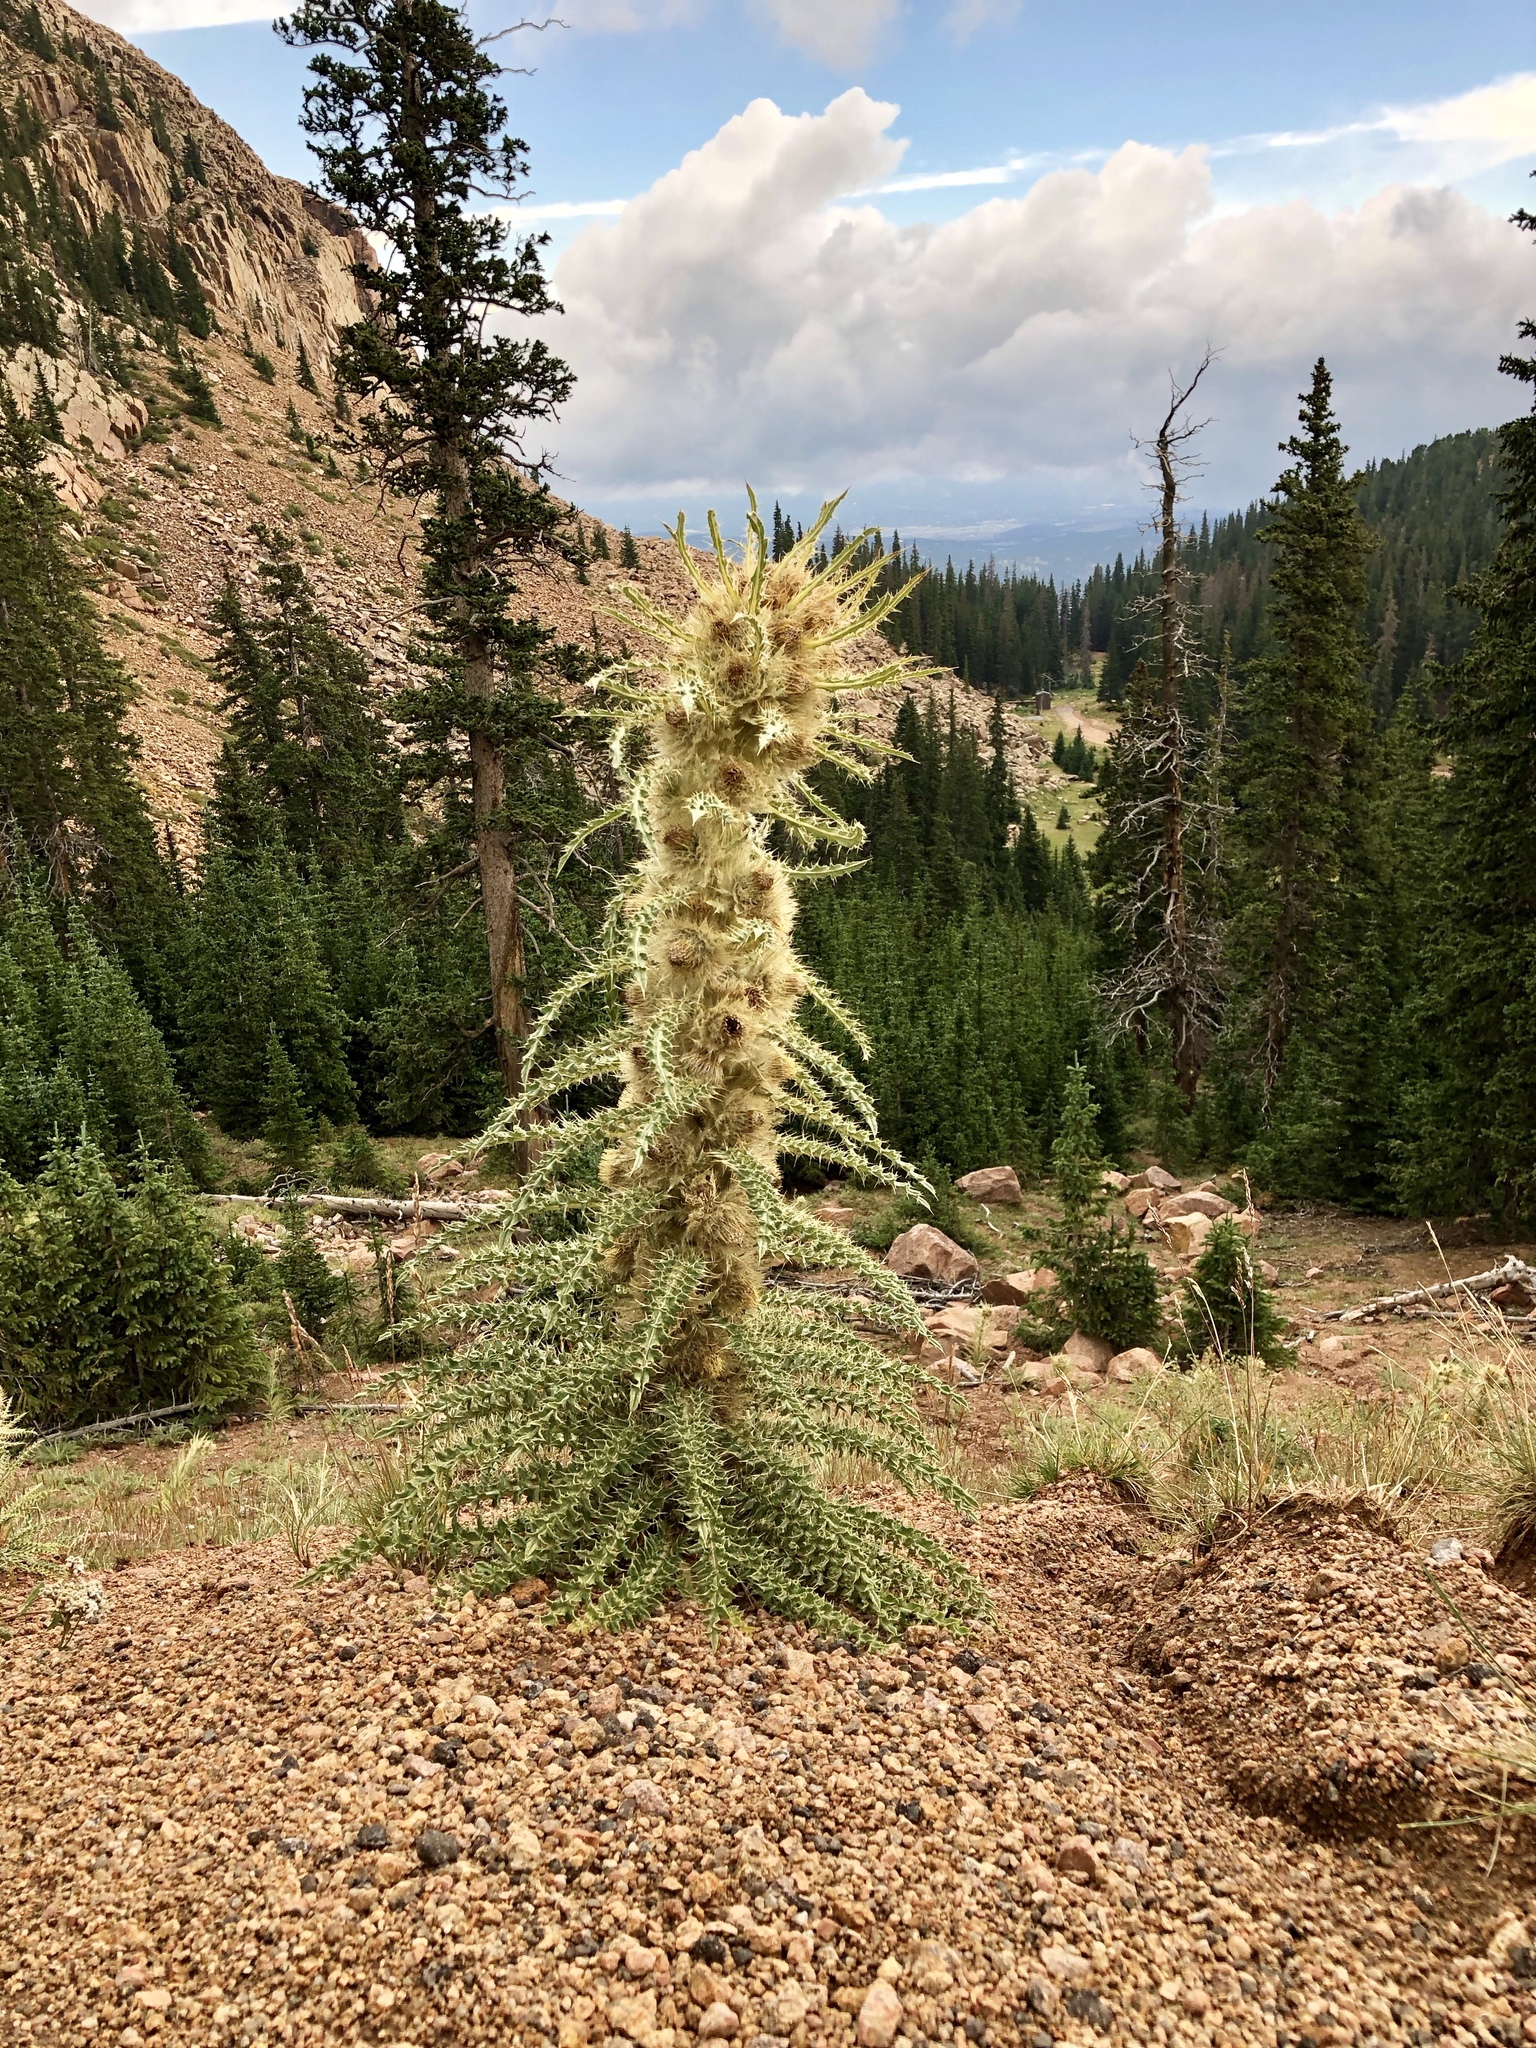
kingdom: Plantae
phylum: Tracheophyta
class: Magnoliopsida
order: Asterales
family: Asteraceae
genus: Cirsium
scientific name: Cirsium scopulorum
